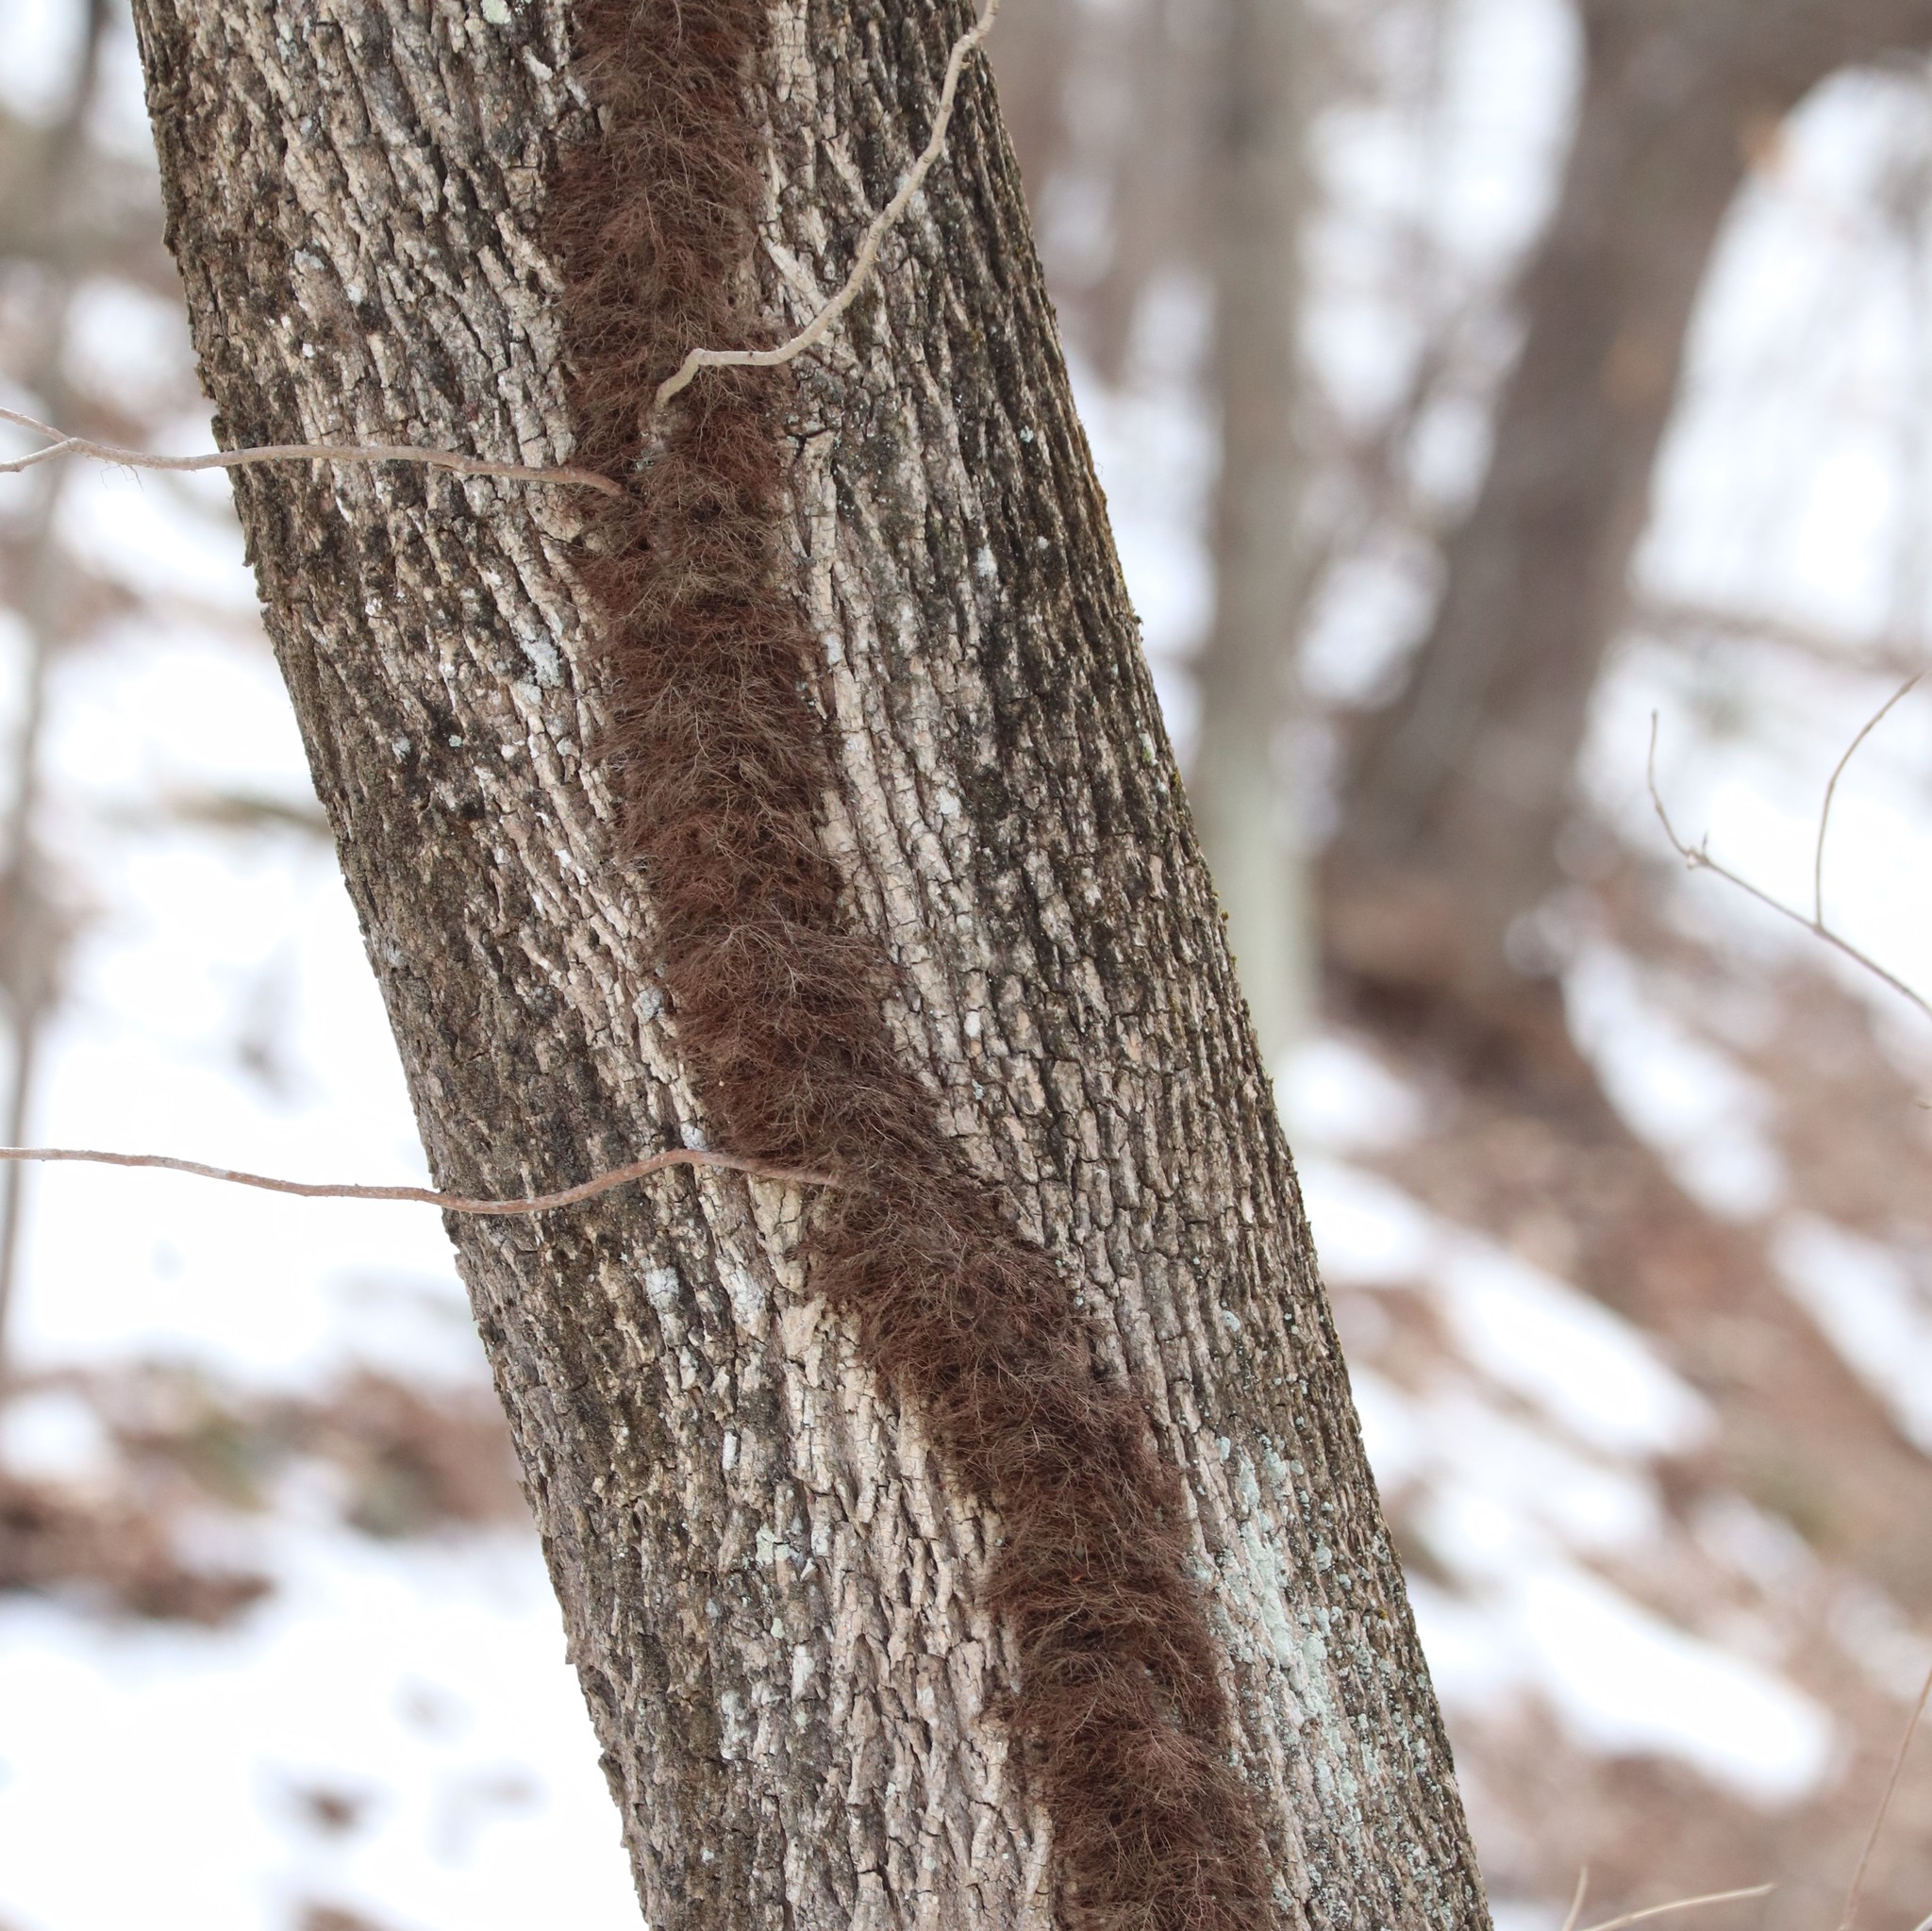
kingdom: Plantae
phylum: Tracheophyta
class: Magnoliopsida
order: Sapindales
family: Anacardiaceae
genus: Toxicodendron
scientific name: Toxicodendron radicans
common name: Poison ivy
